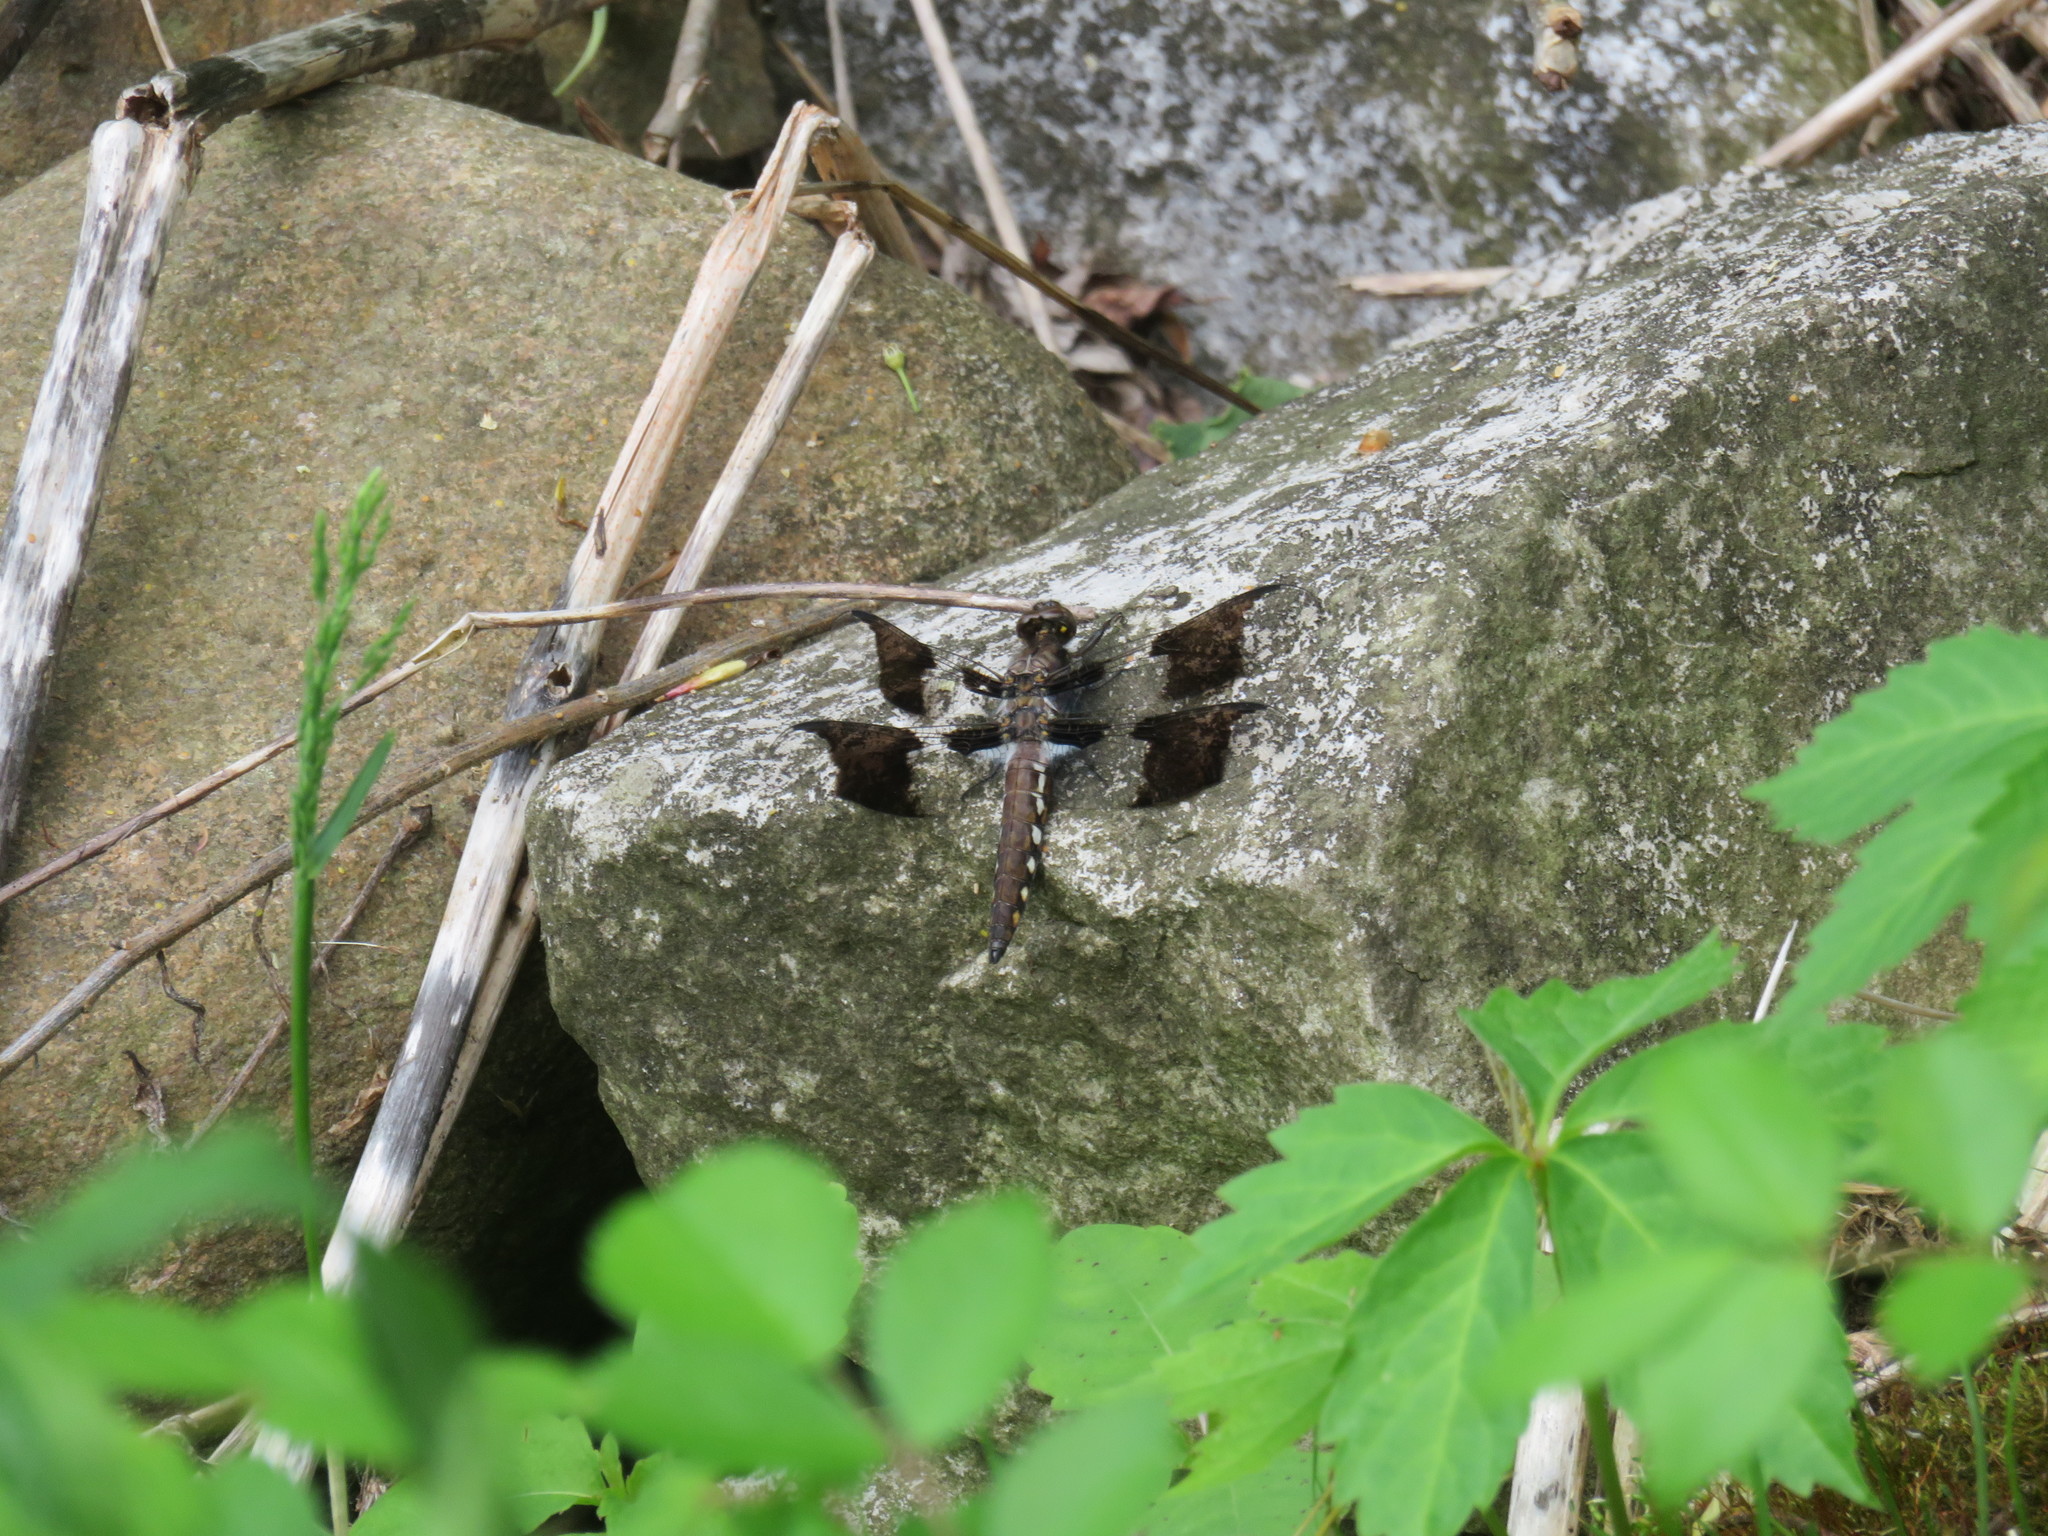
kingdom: Animalia
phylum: Arthropoda
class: Insecta
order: Odonata
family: Libellulidae
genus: Plathemis
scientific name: Plathemis lydia
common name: Common whitetail
